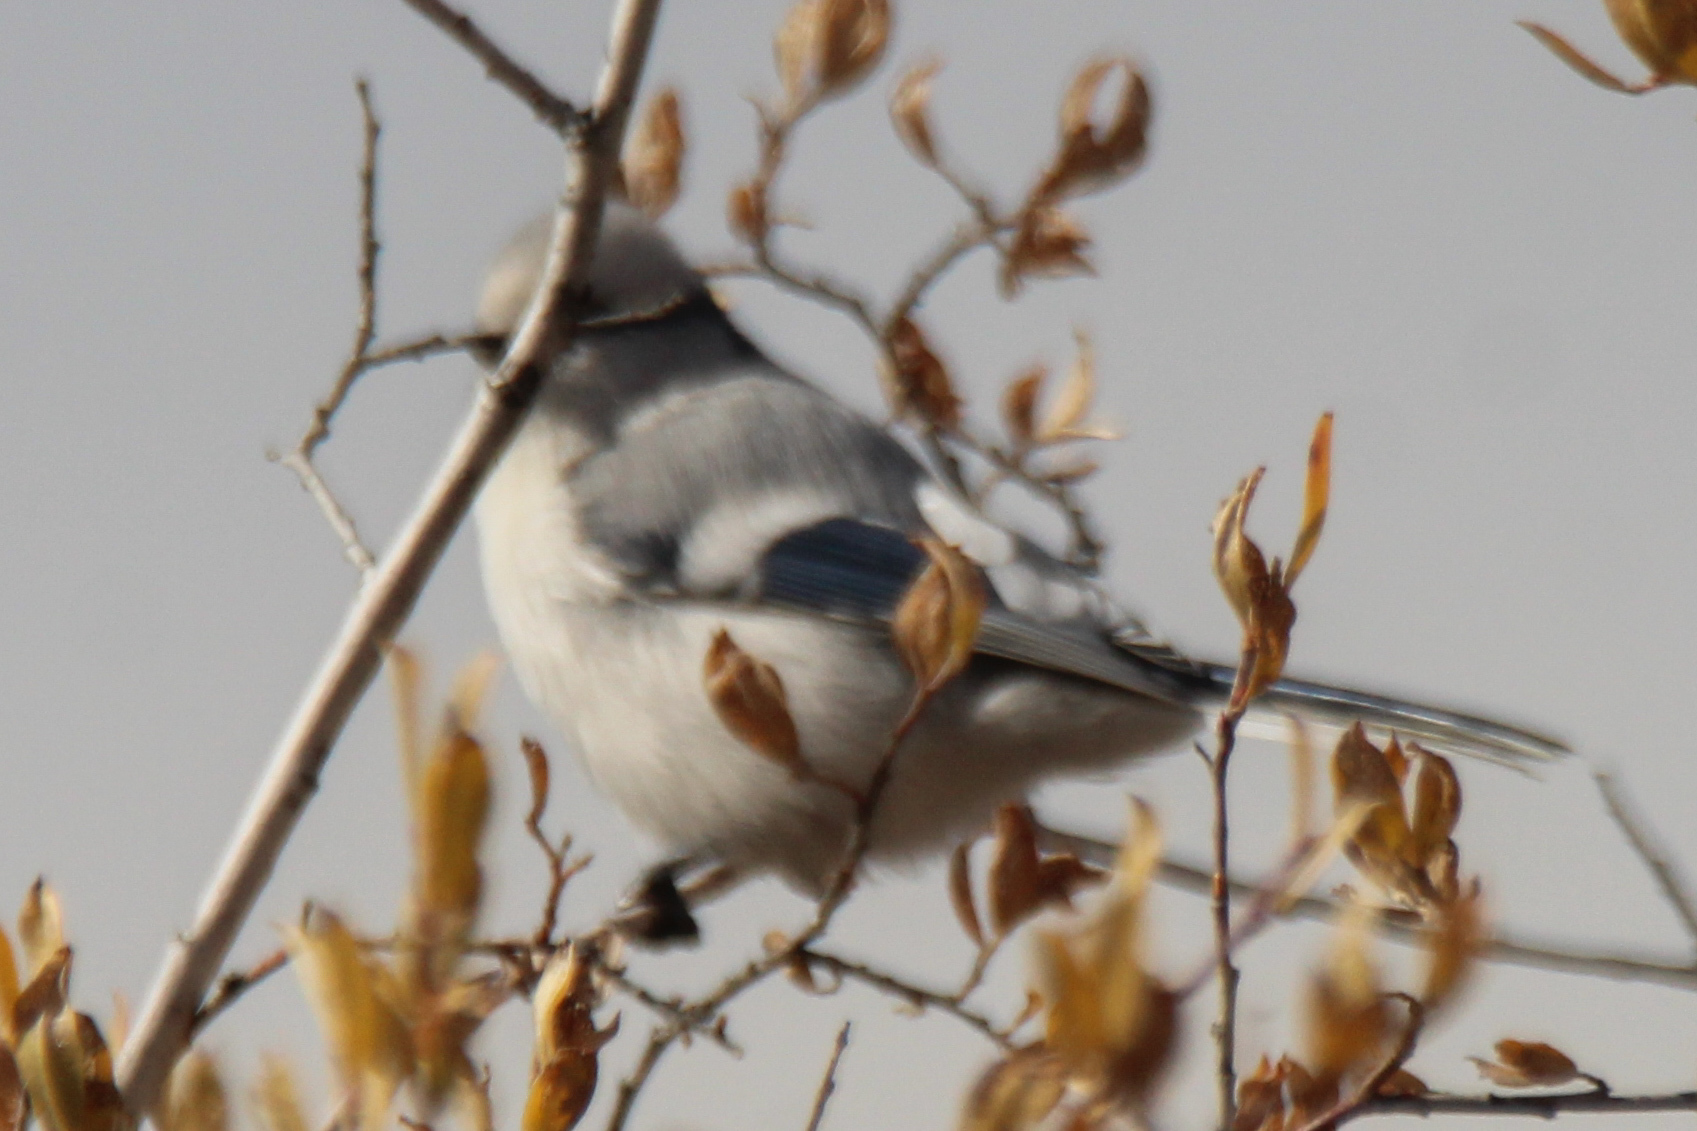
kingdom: Animalia
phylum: Chordata
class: Aves
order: Passeriformes
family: Paridae
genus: Cyanistes
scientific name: Cyanistes cyanus
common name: Azure tit
